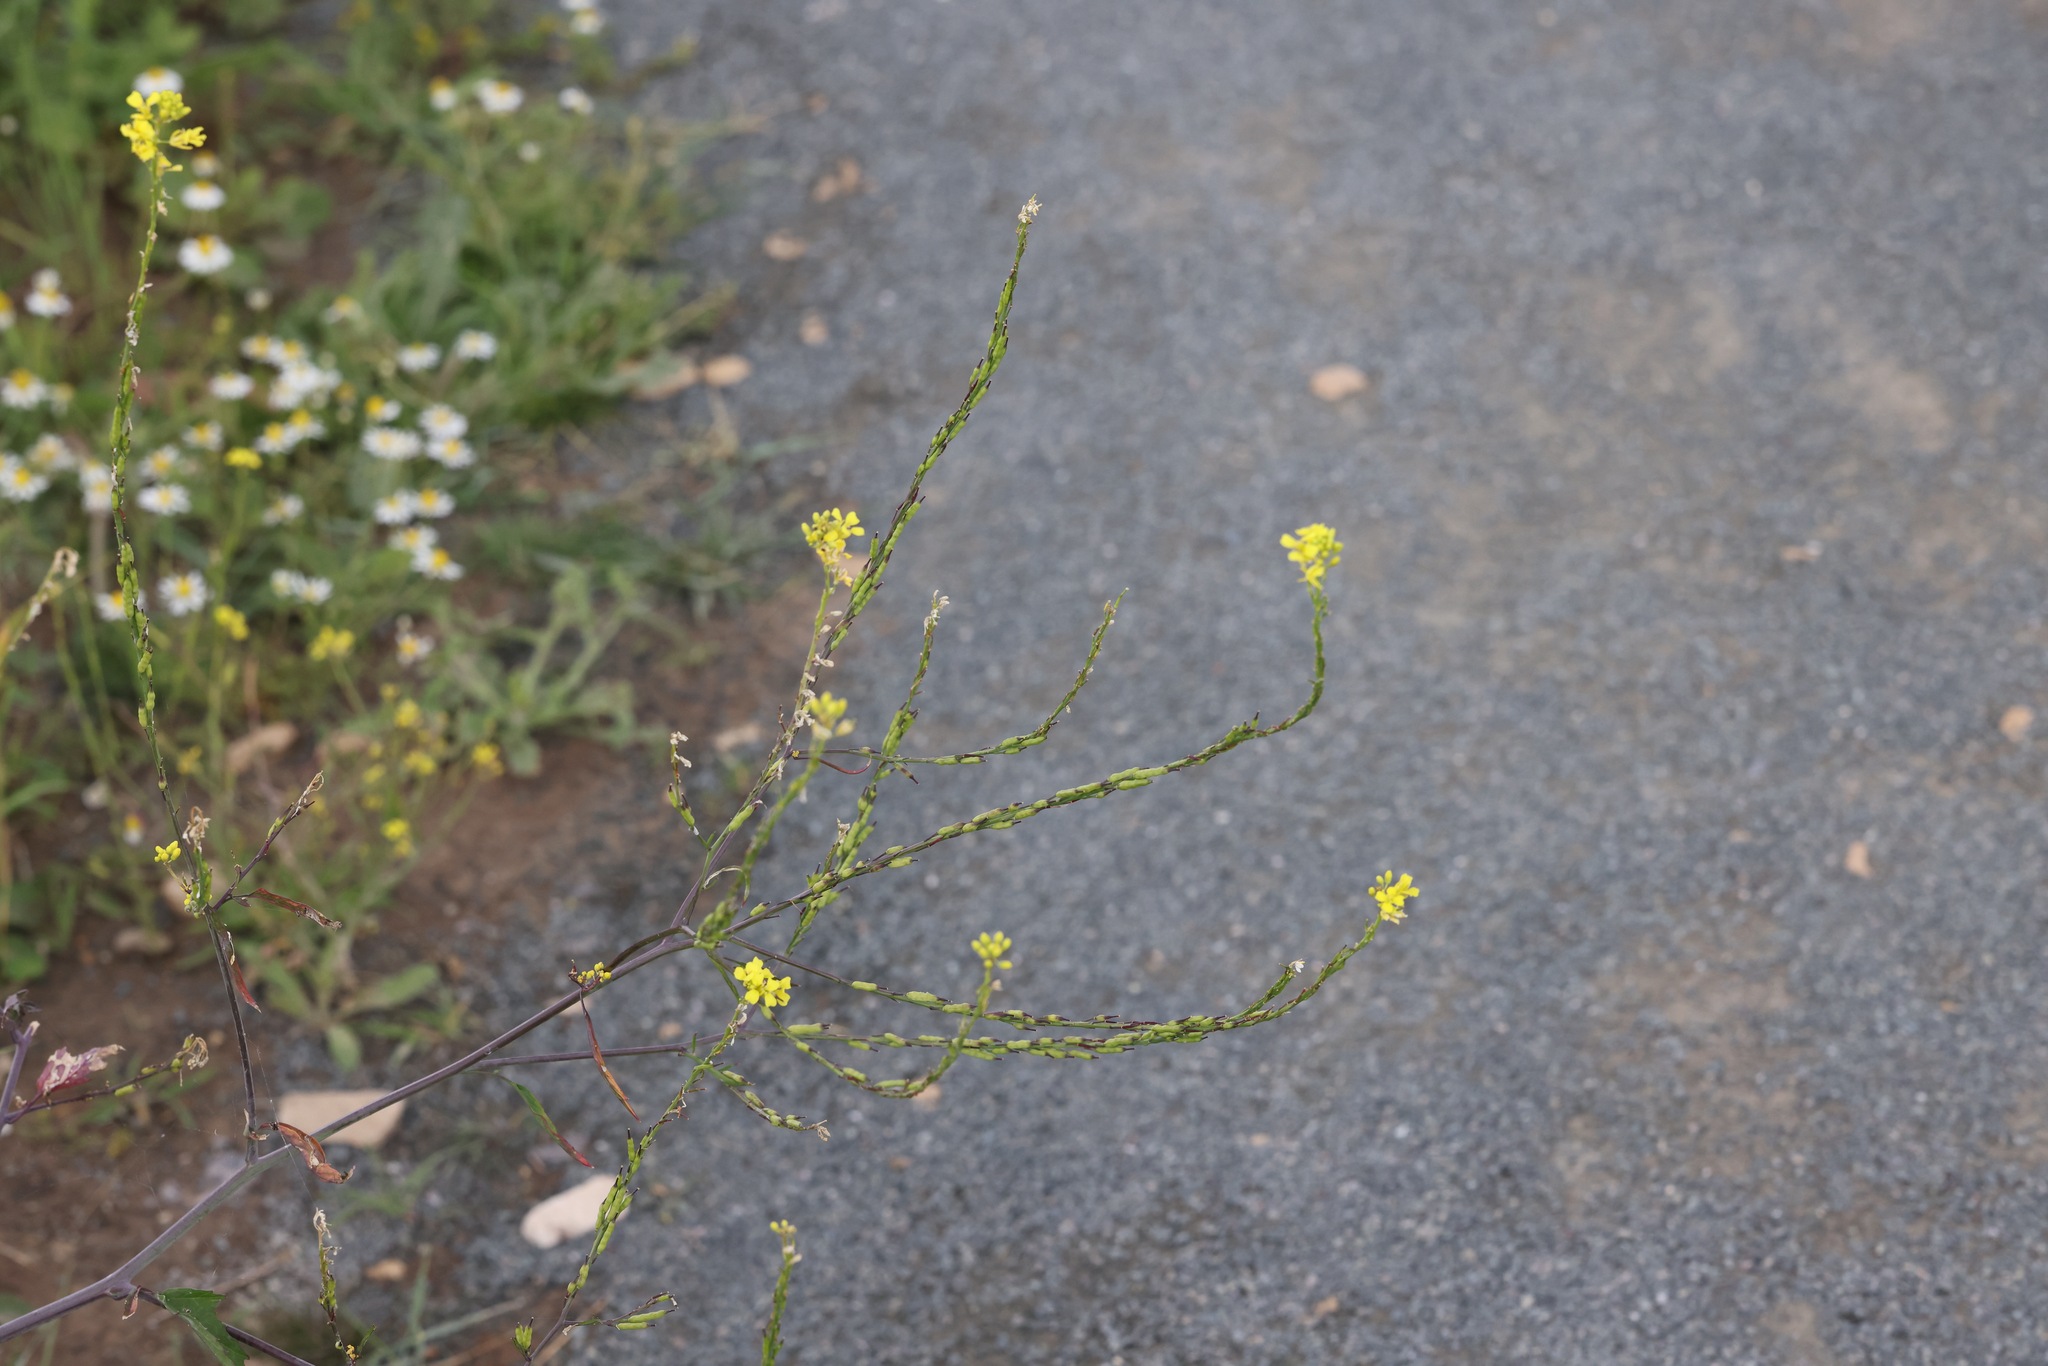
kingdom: Plantae
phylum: Tracheophyta
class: Magnoliopsida
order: Brassicales
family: Brassicaceae
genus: Brassica
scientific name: Brassica nigra
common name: Black mustard
